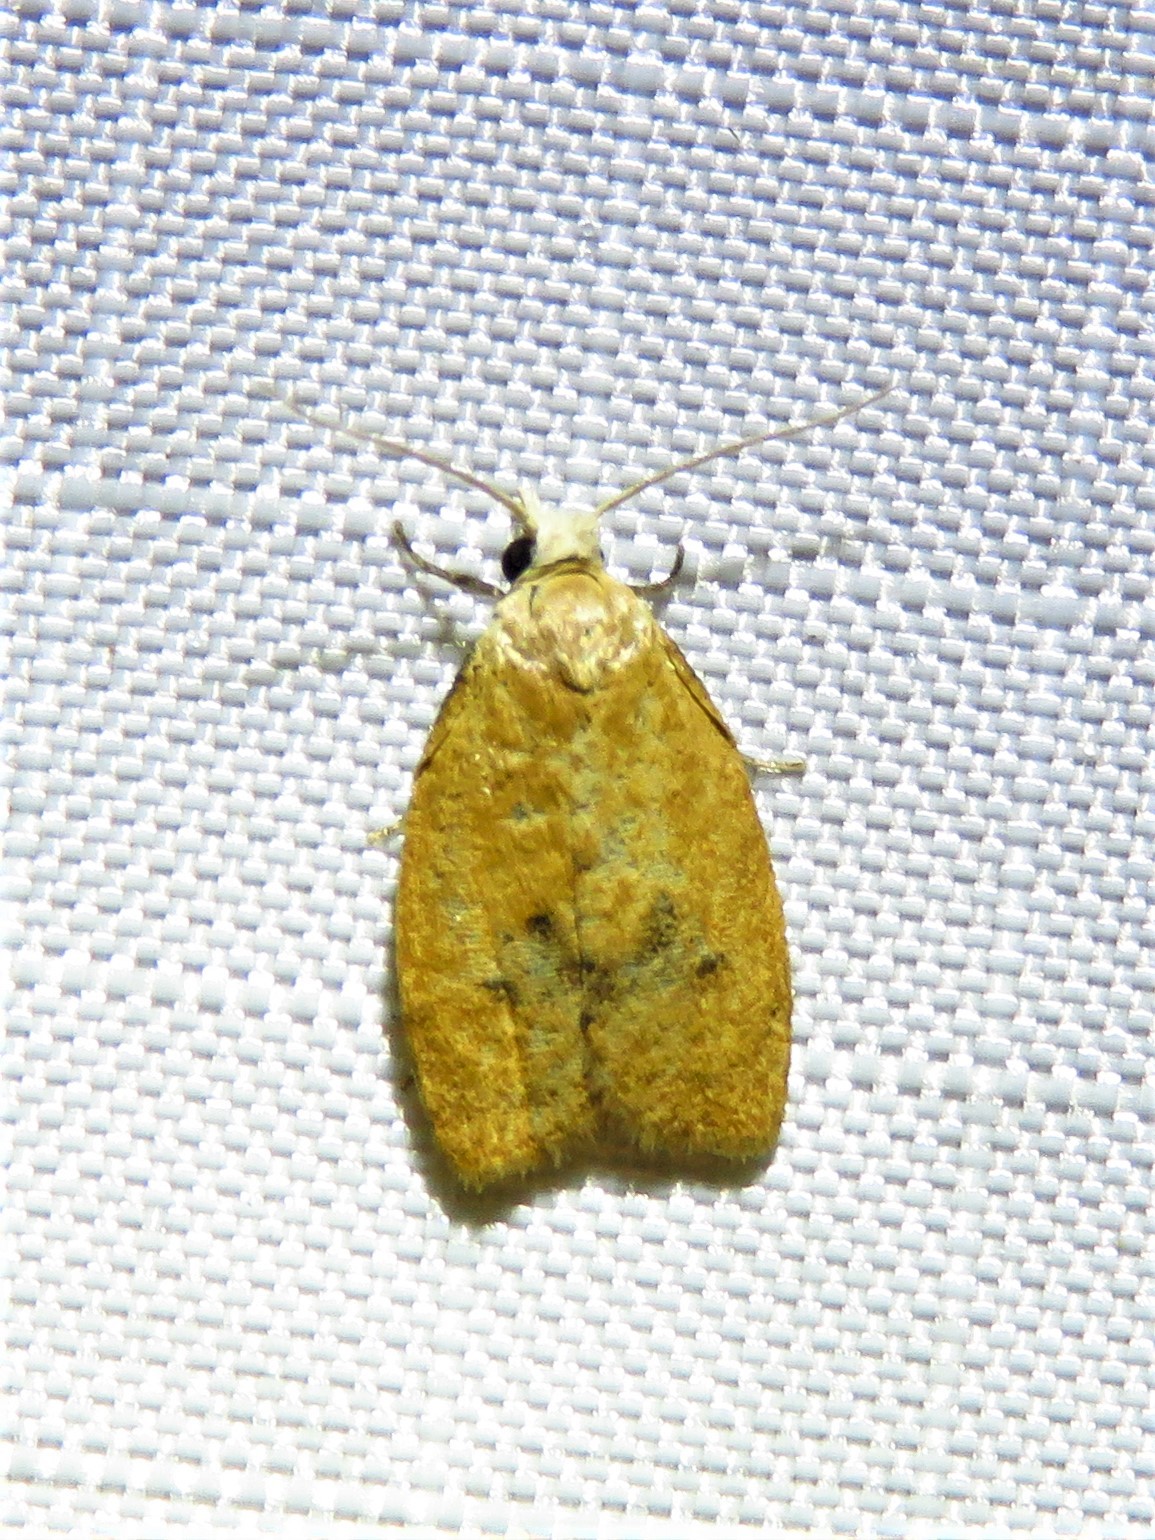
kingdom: Animalia
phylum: Arthropoda
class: Insecta
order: Lepidoptera
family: Tortricidae
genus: Sparganothoides
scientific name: Sparganothoides lentiginosana
